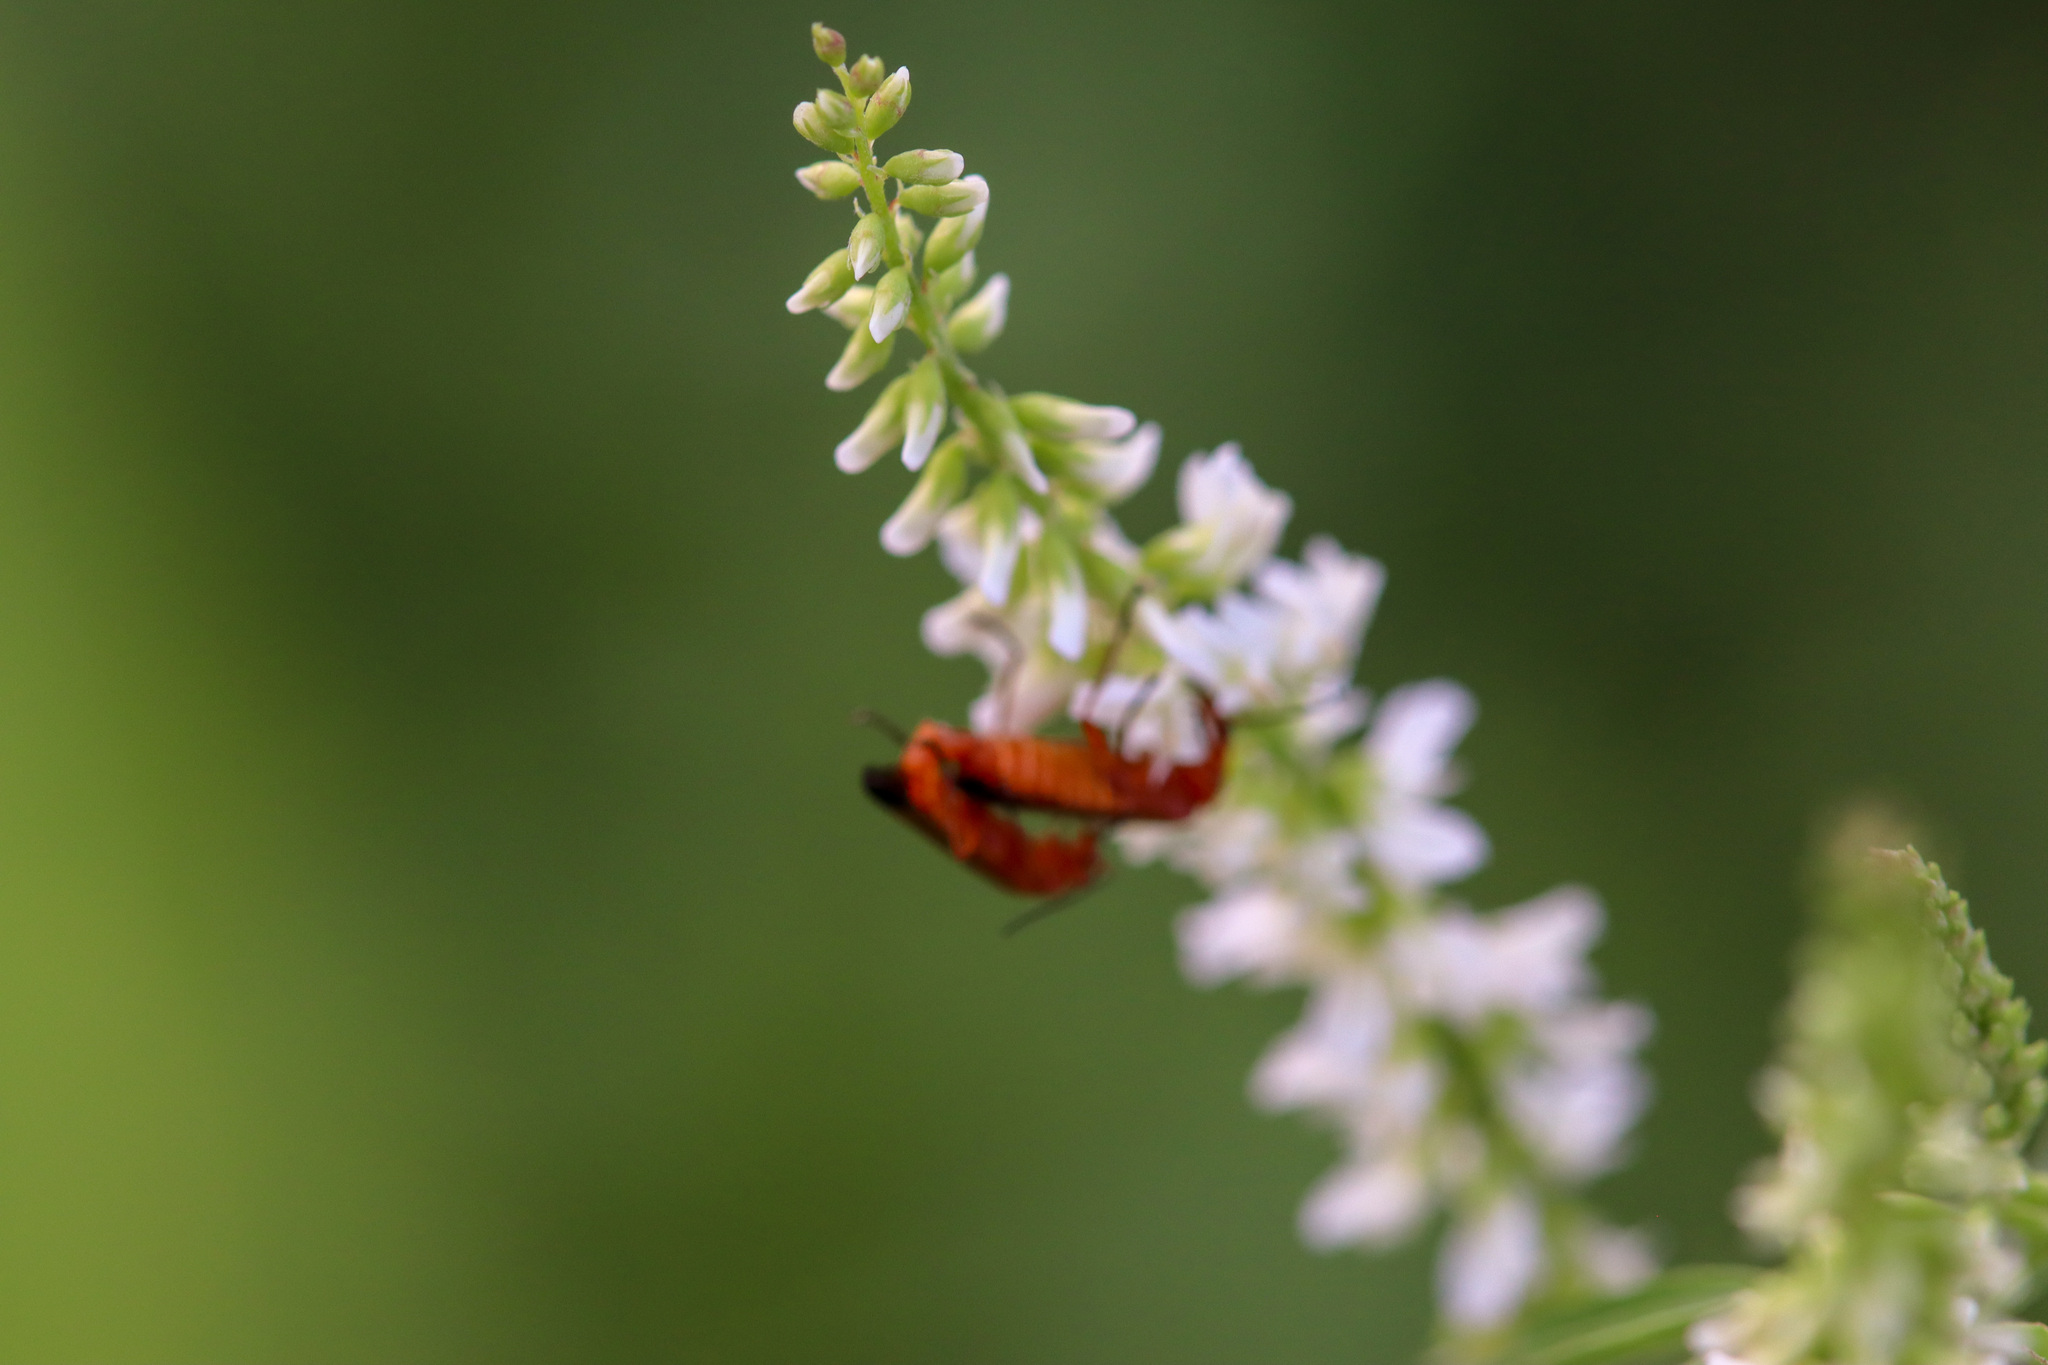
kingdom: Animalia
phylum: Arthropoda
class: Insecta
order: Coleoptera
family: Cantharidae
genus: Rhagonycha
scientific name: Rhagonycha fulva
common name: Common red soldier beetle
